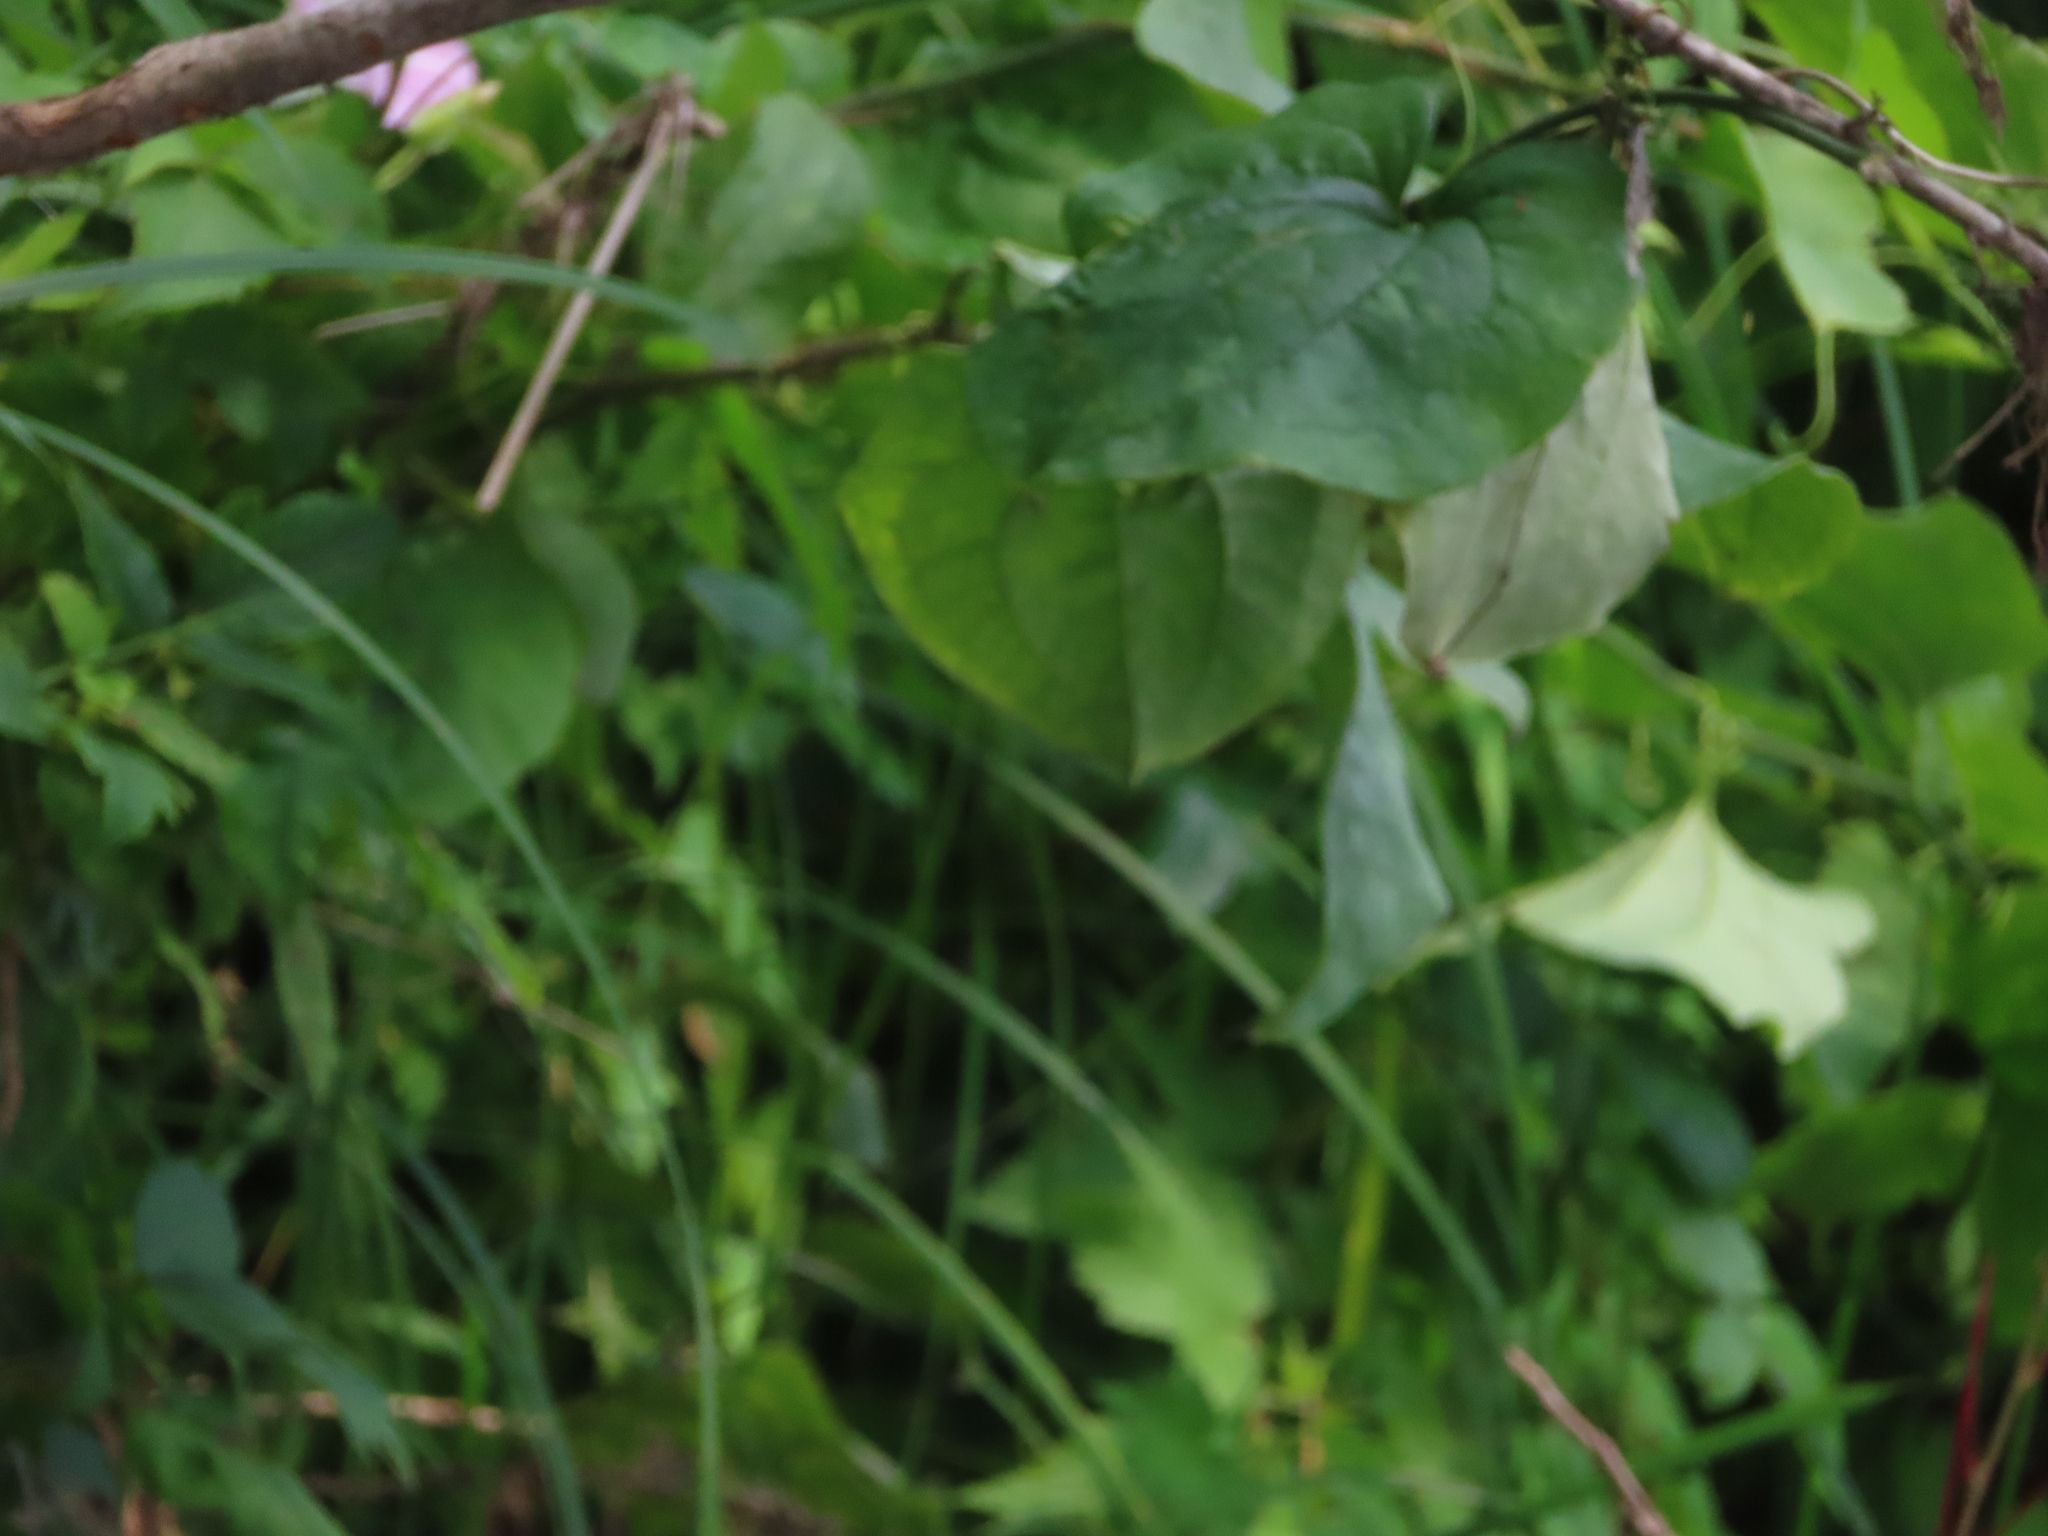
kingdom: Plantae
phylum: Tracheophyta
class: Liliopsida
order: Liliales
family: Smilacaceae
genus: Smilax
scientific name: Smilax tamnoides
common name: Hellfetter
